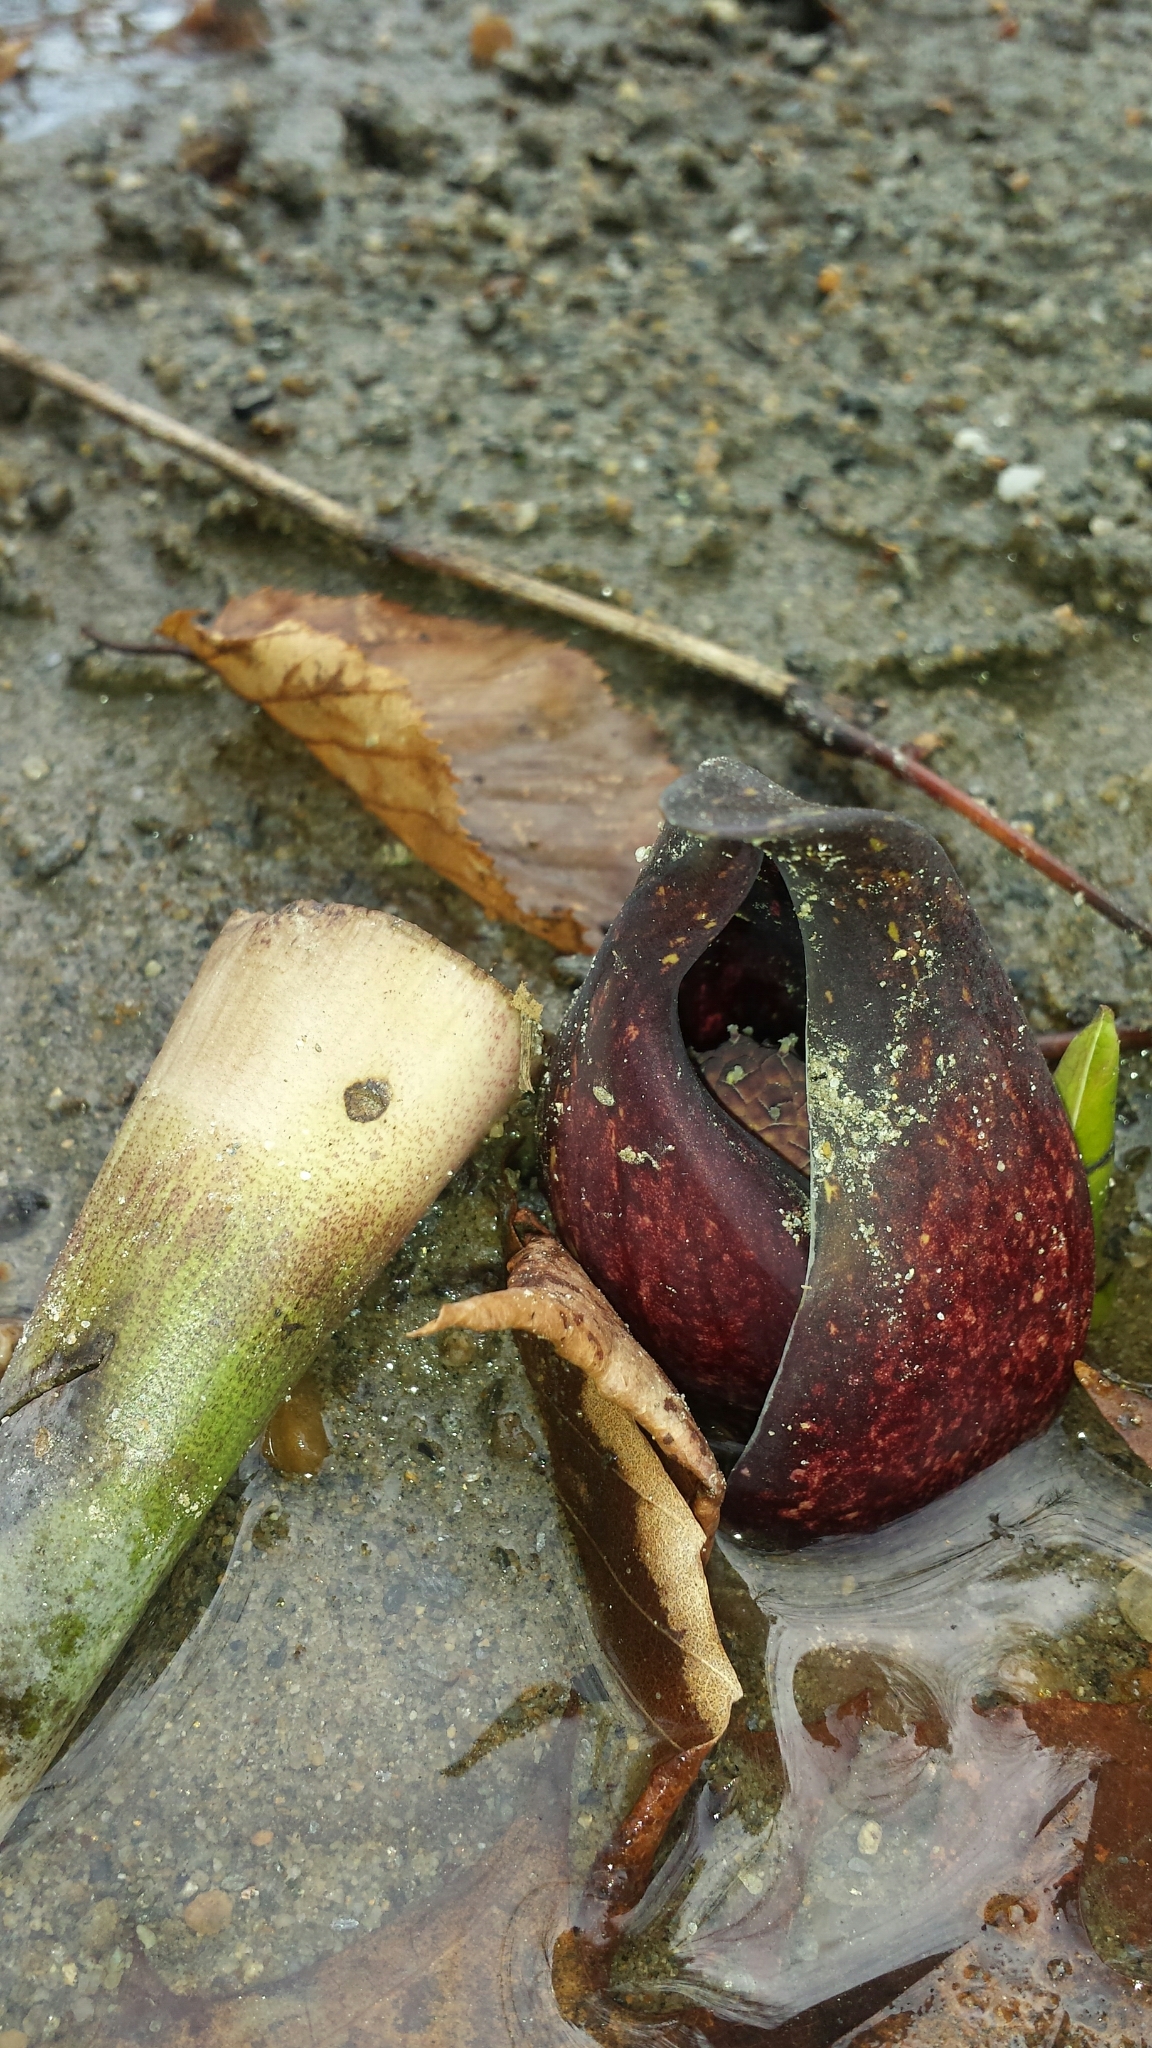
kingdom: Plantae
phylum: Tracheophyta
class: Liliopsida
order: Alismatales
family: Araceae
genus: Symplocarpus
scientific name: Symplocarpus foetidus
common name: Eastern skunk cabbage
